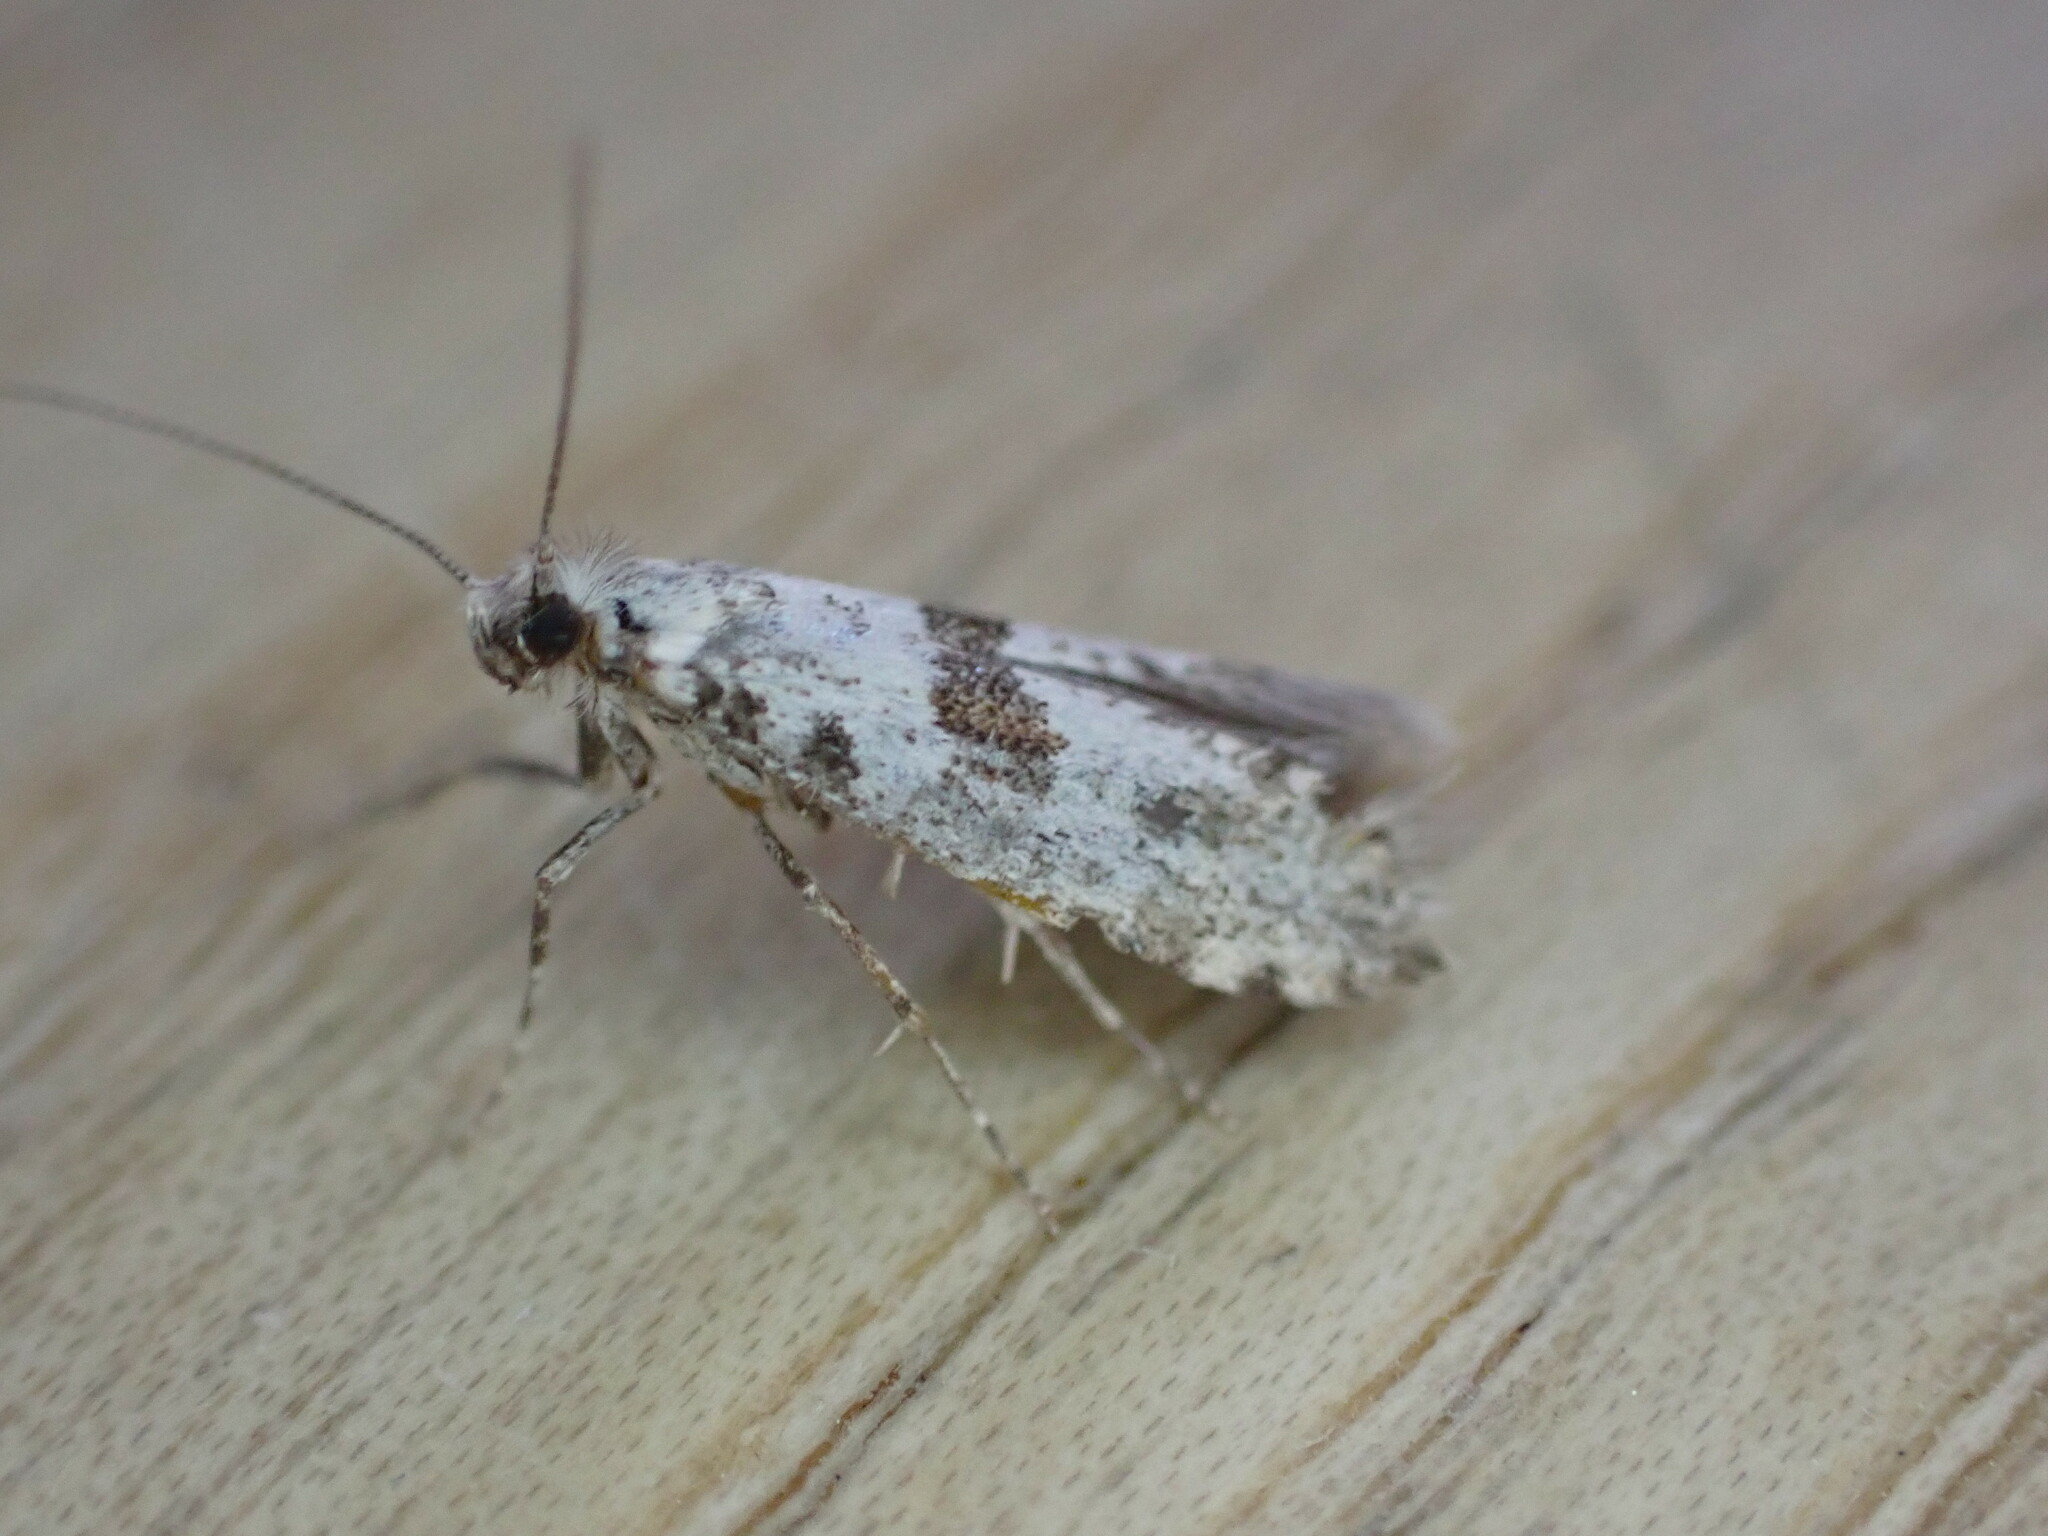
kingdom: Animalia
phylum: Arthropoda
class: Insecta
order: Lepidoptera
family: Yponomeutidae
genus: Scythropia
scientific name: Scythropia crataegella
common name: Hawthorn moth
